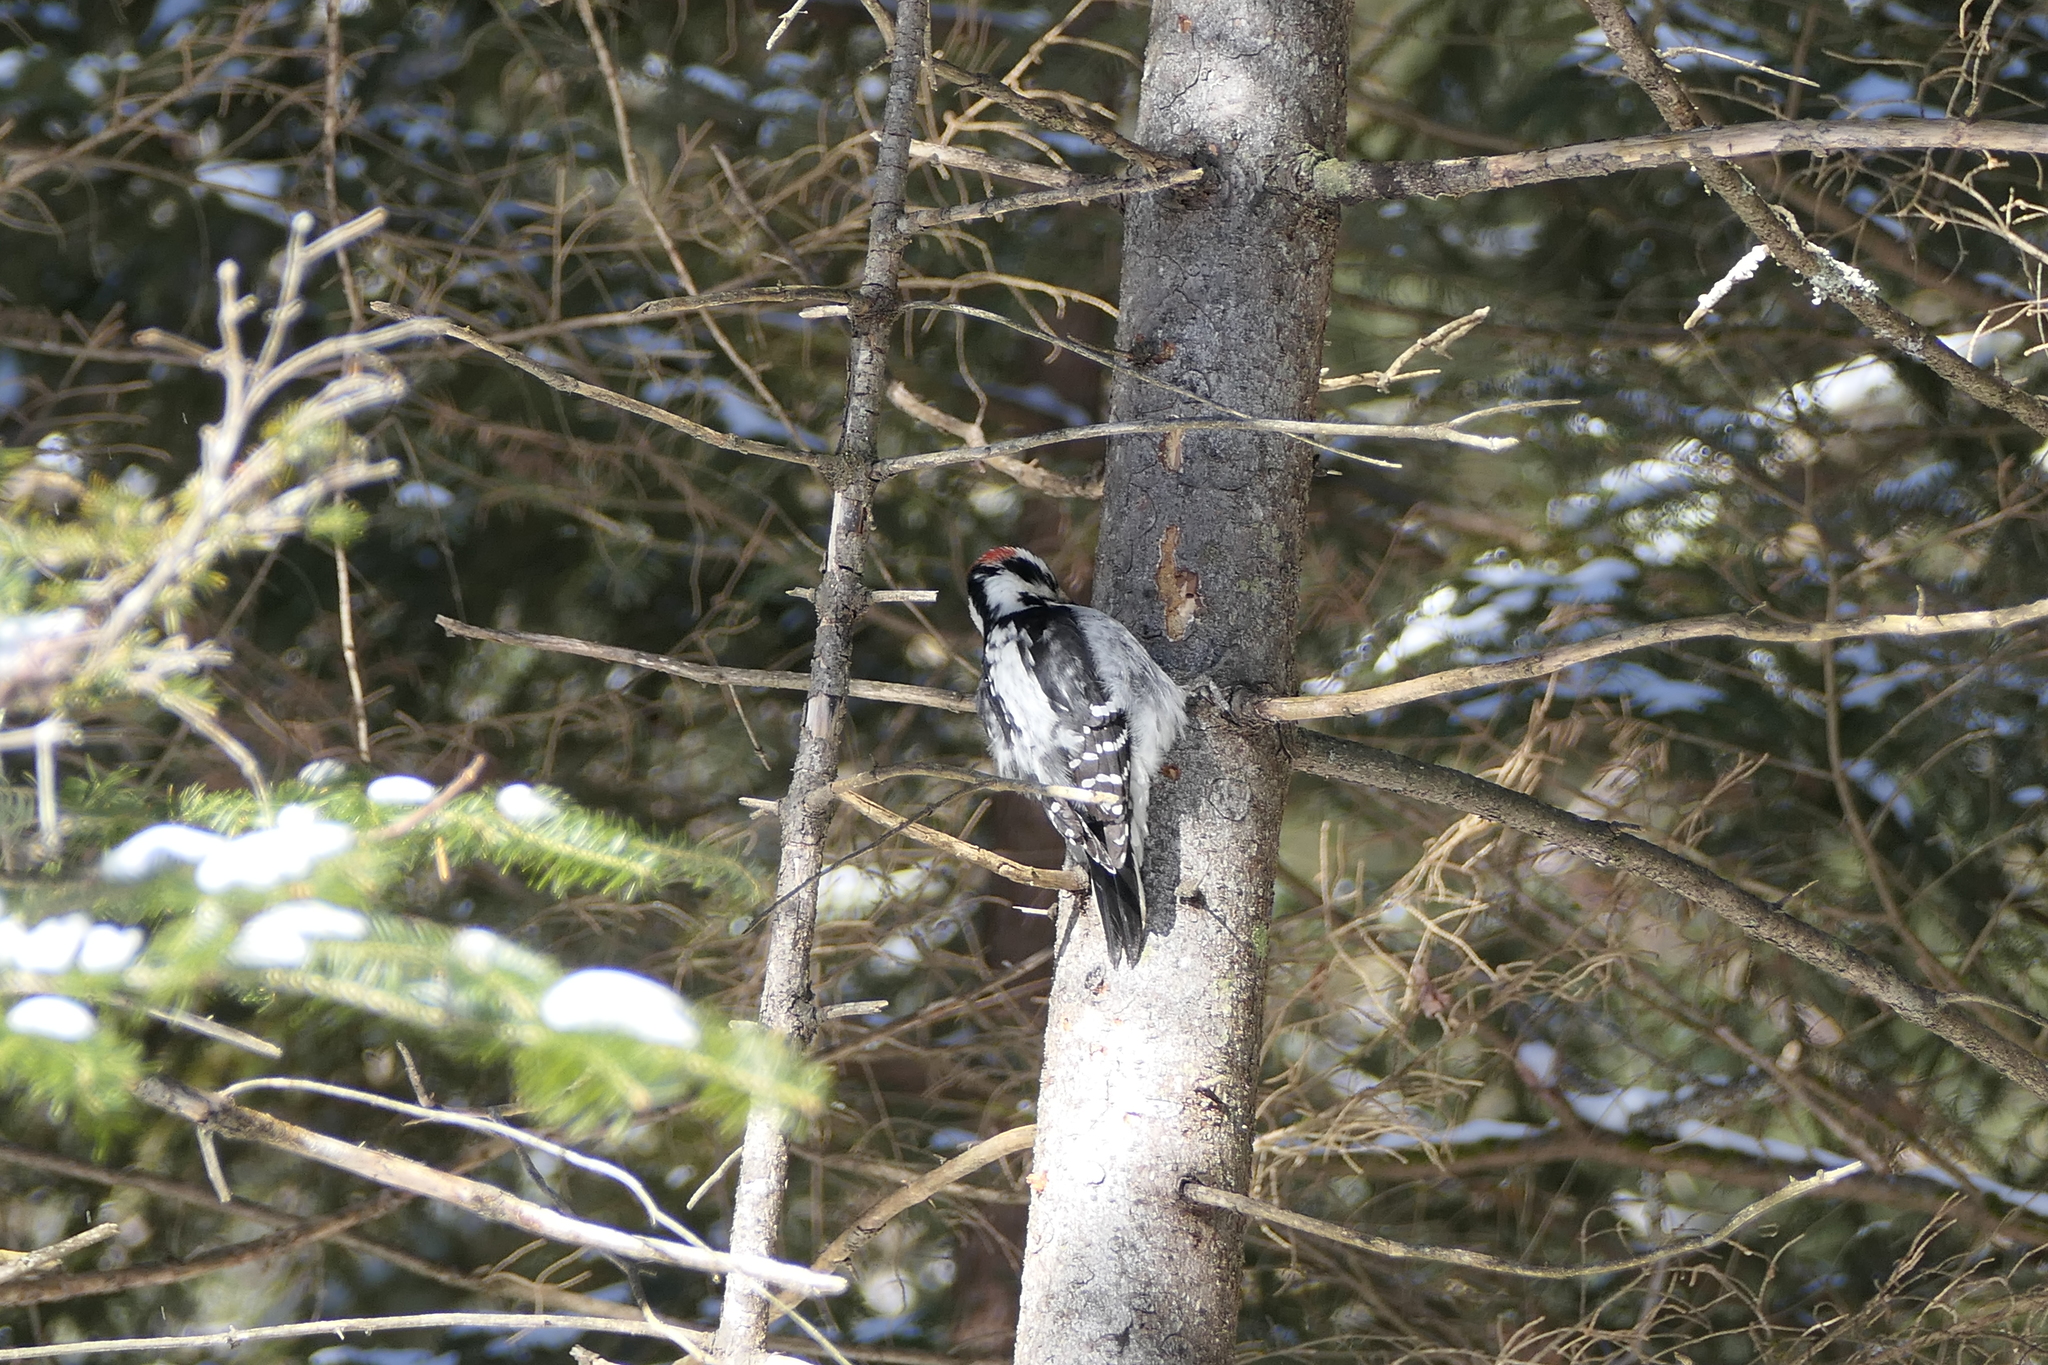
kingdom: Animalia
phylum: Chordata
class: Aves
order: Piciformes
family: Picidae
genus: Leuconotopicus
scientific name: Leuconotopicus villosus
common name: Hairy woodpecker
